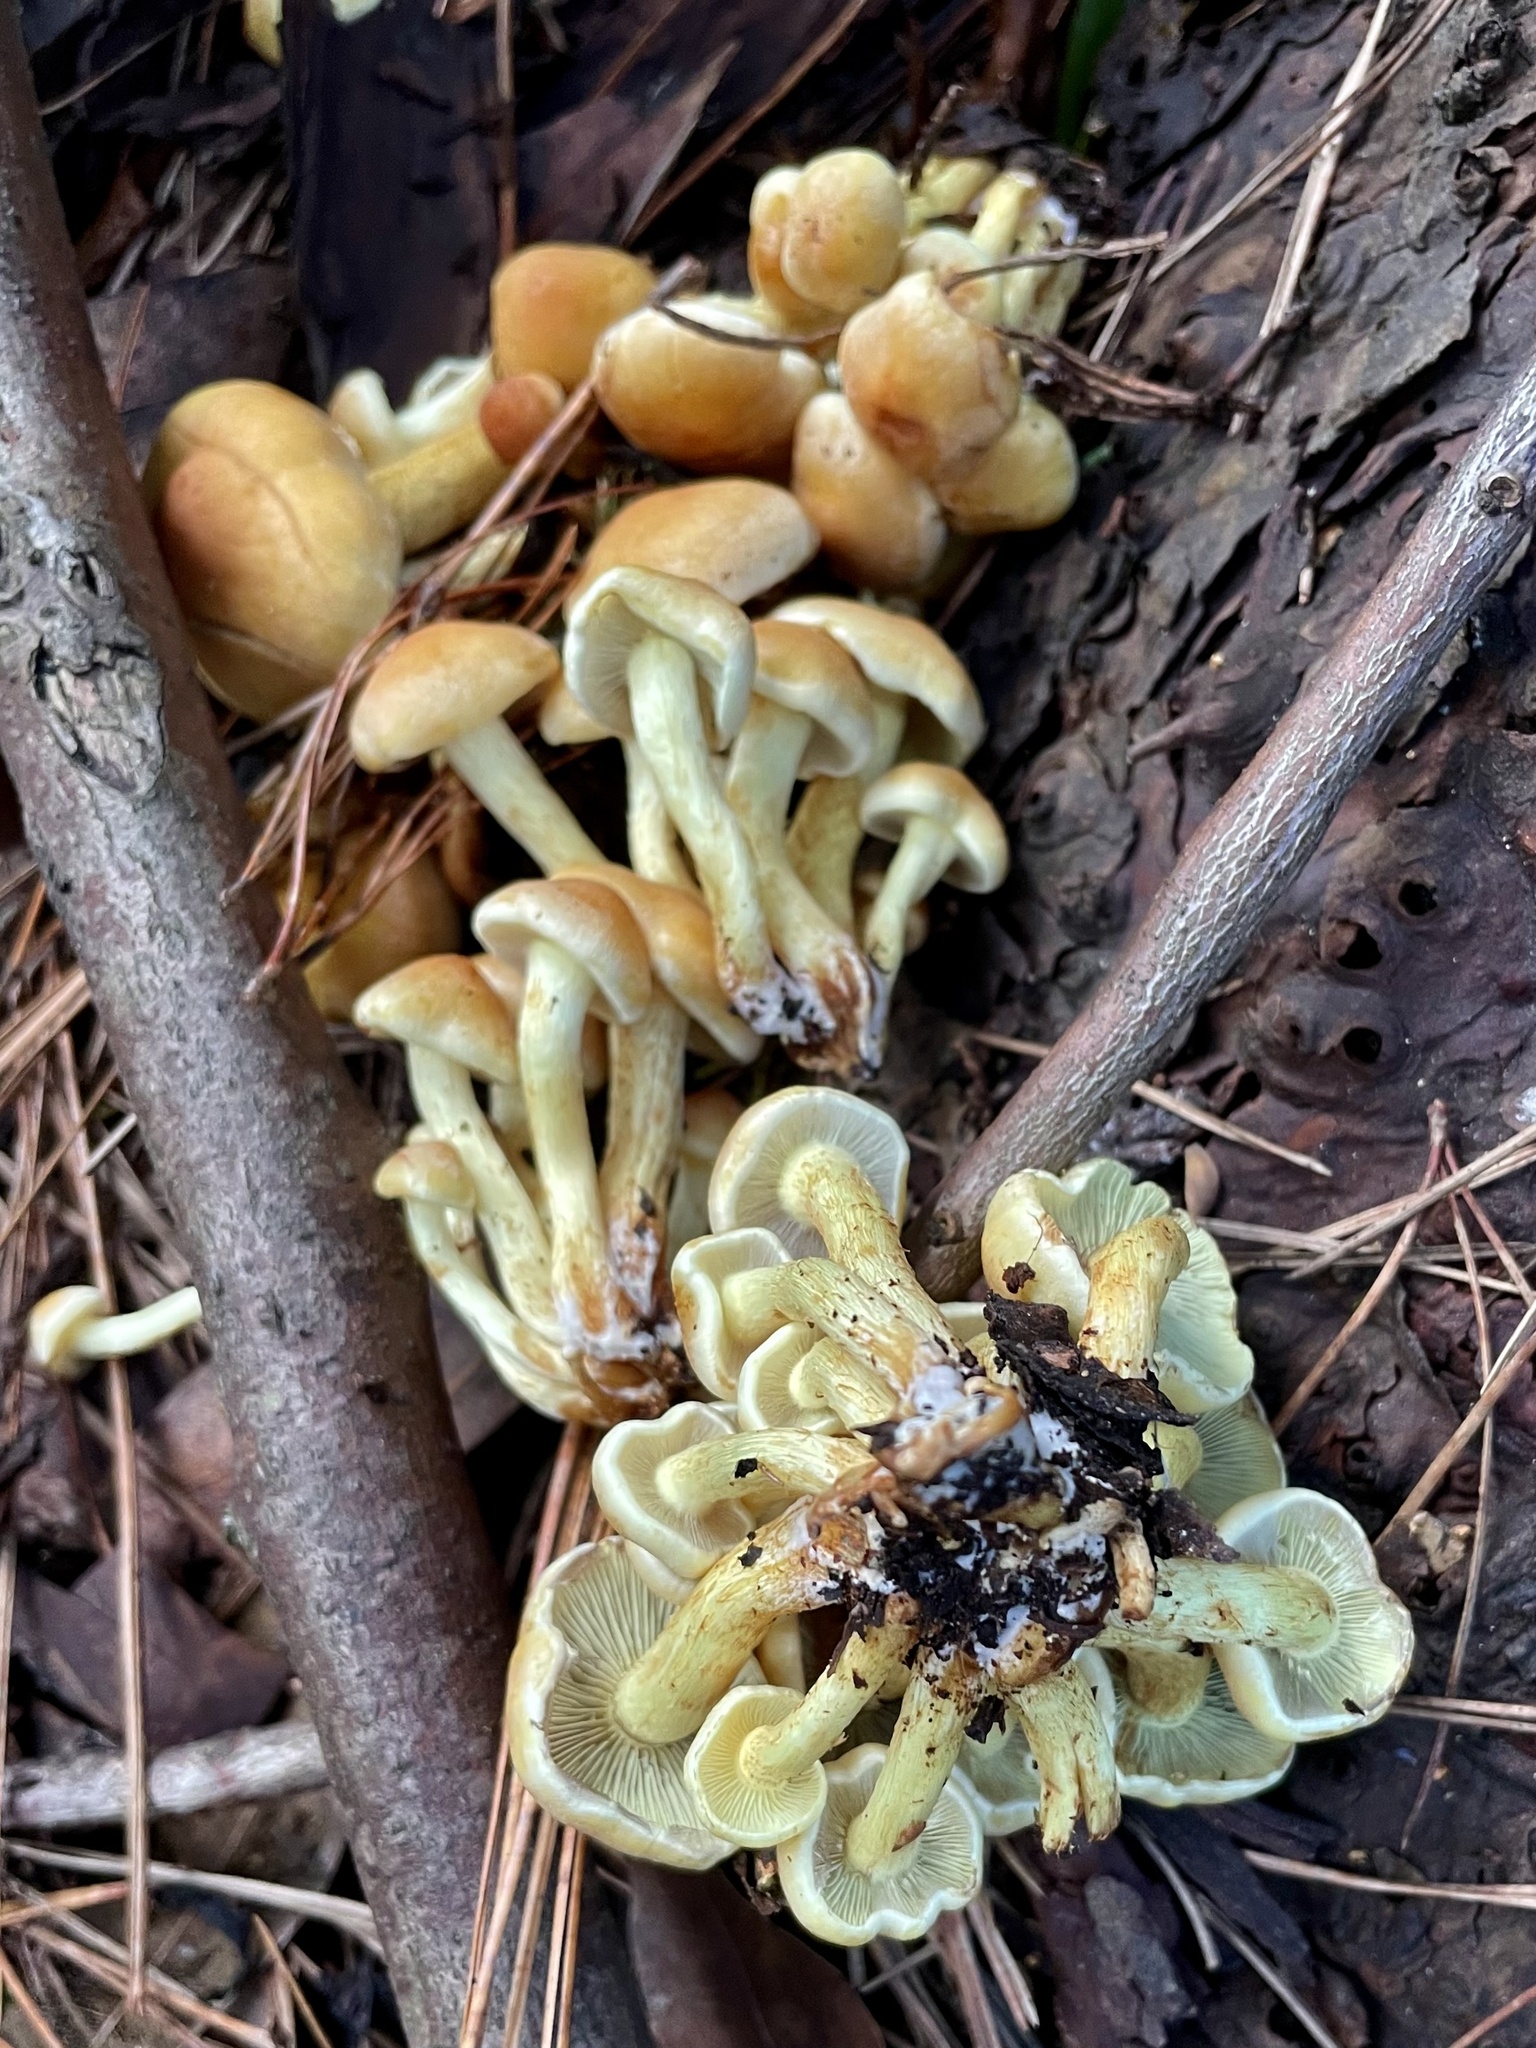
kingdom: Fungi
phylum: Basidiomycota
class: Agaricomycetes
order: Agaricales
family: Strophariaceae
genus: Hypholoma
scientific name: Hypholoma fasciculare
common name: Sulphur tuft
